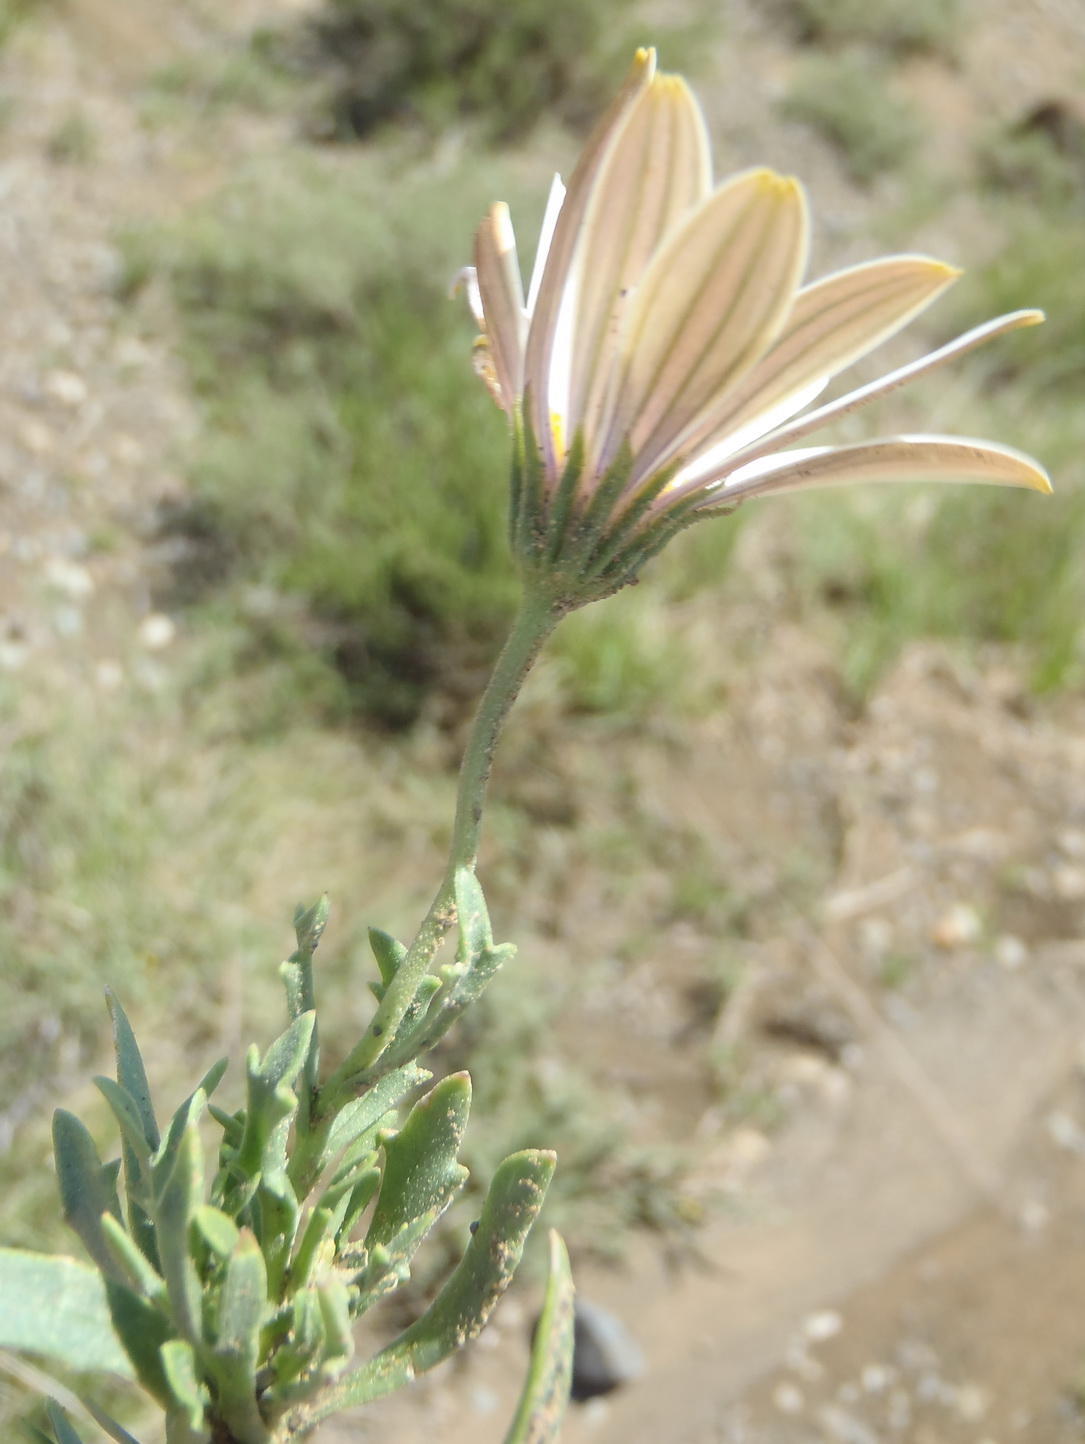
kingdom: Plantae
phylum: Tracheophyta
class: Magnoliopsida
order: Asterales
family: Asteraceae
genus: Dimorphotheca
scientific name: Dimorphotheca cuneata
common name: Daisy
